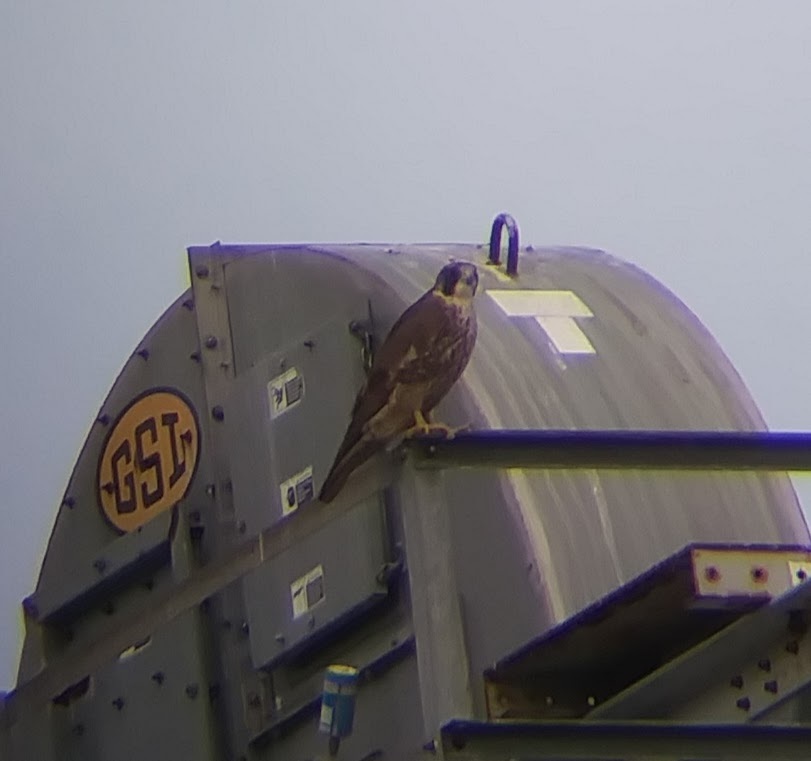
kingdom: Animalia
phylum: Chordata
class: Aves
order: Falconiformes
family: Falconidae
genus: Falco
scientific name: Falco peregrinus
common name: Peregrine falcon
